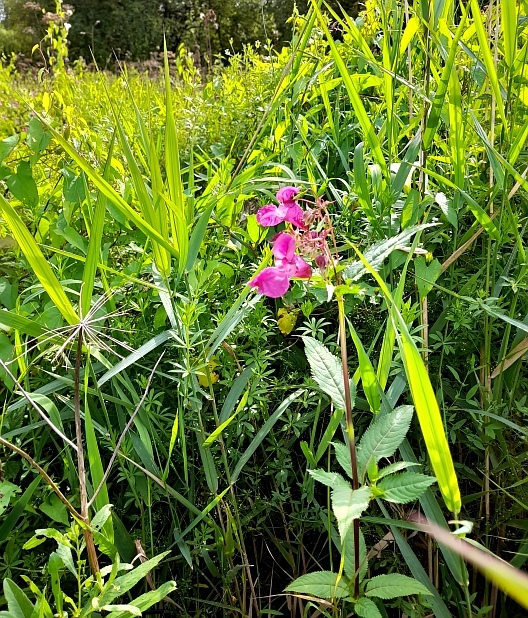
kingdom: Plantae
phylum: Tracheophyta
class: Magnoliopsida
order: Ericales
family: Balsaminaceae
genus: Impatiens
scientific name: Impatiens glandulifera
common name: Himalayan balsam
